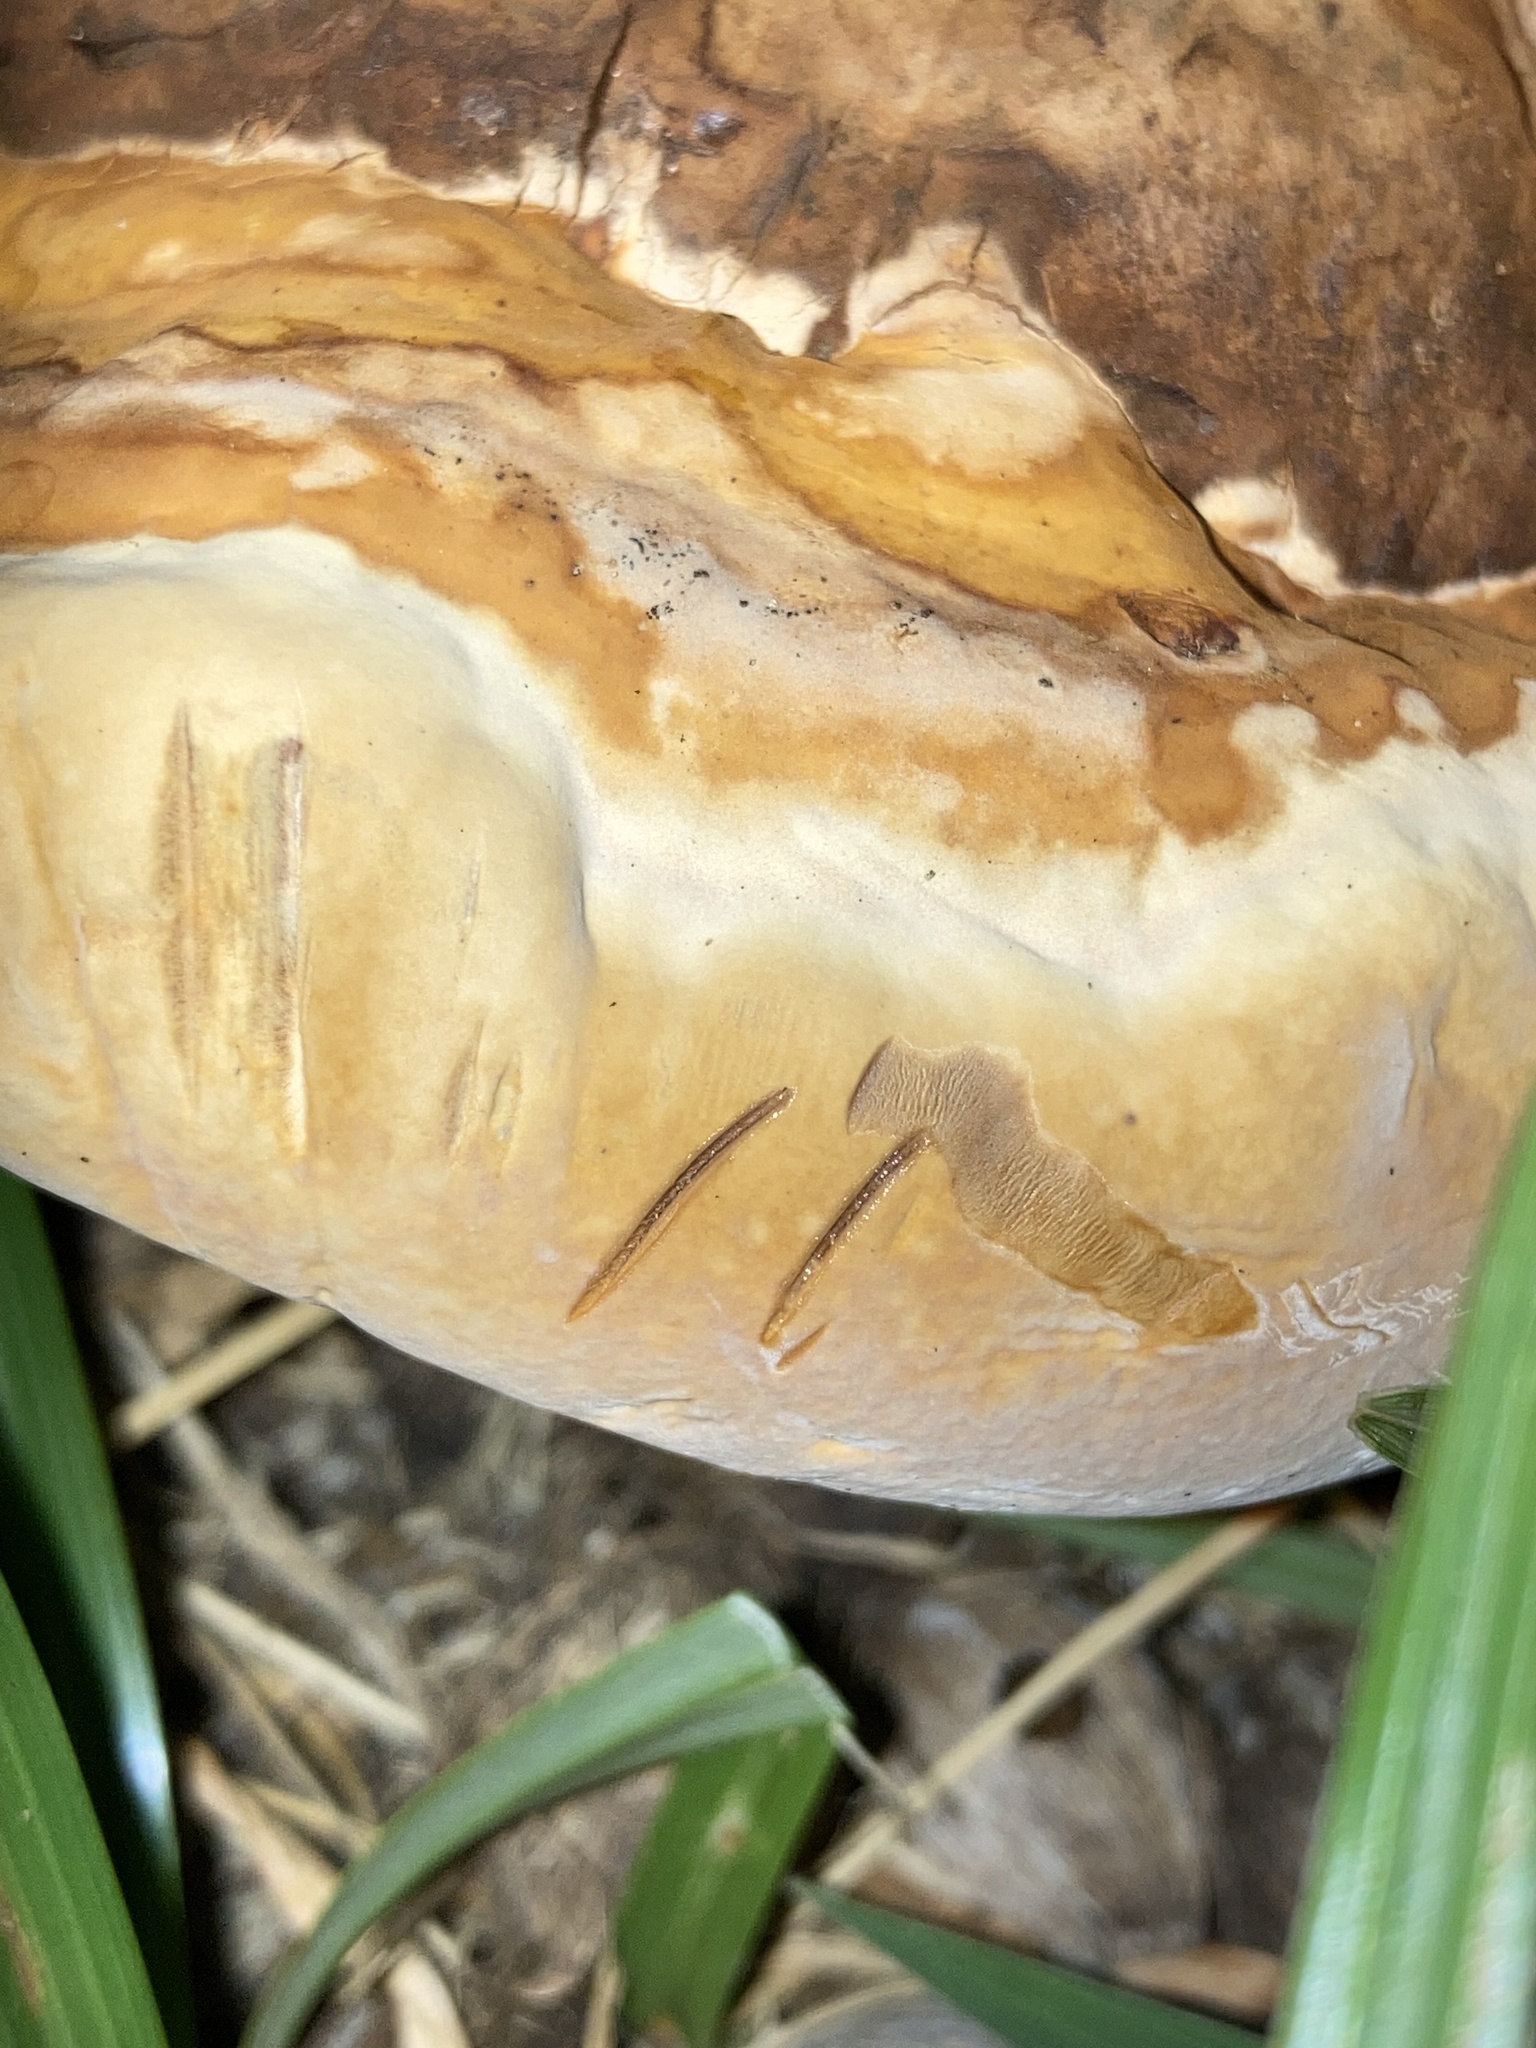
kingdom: Fungi
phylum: Basidiomycota
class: Agaricomycetes
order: Polyporales
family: Polyporaceae
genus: Ganoderma
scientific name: Ganoderma zonatum
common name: Ganoderma butt rot
